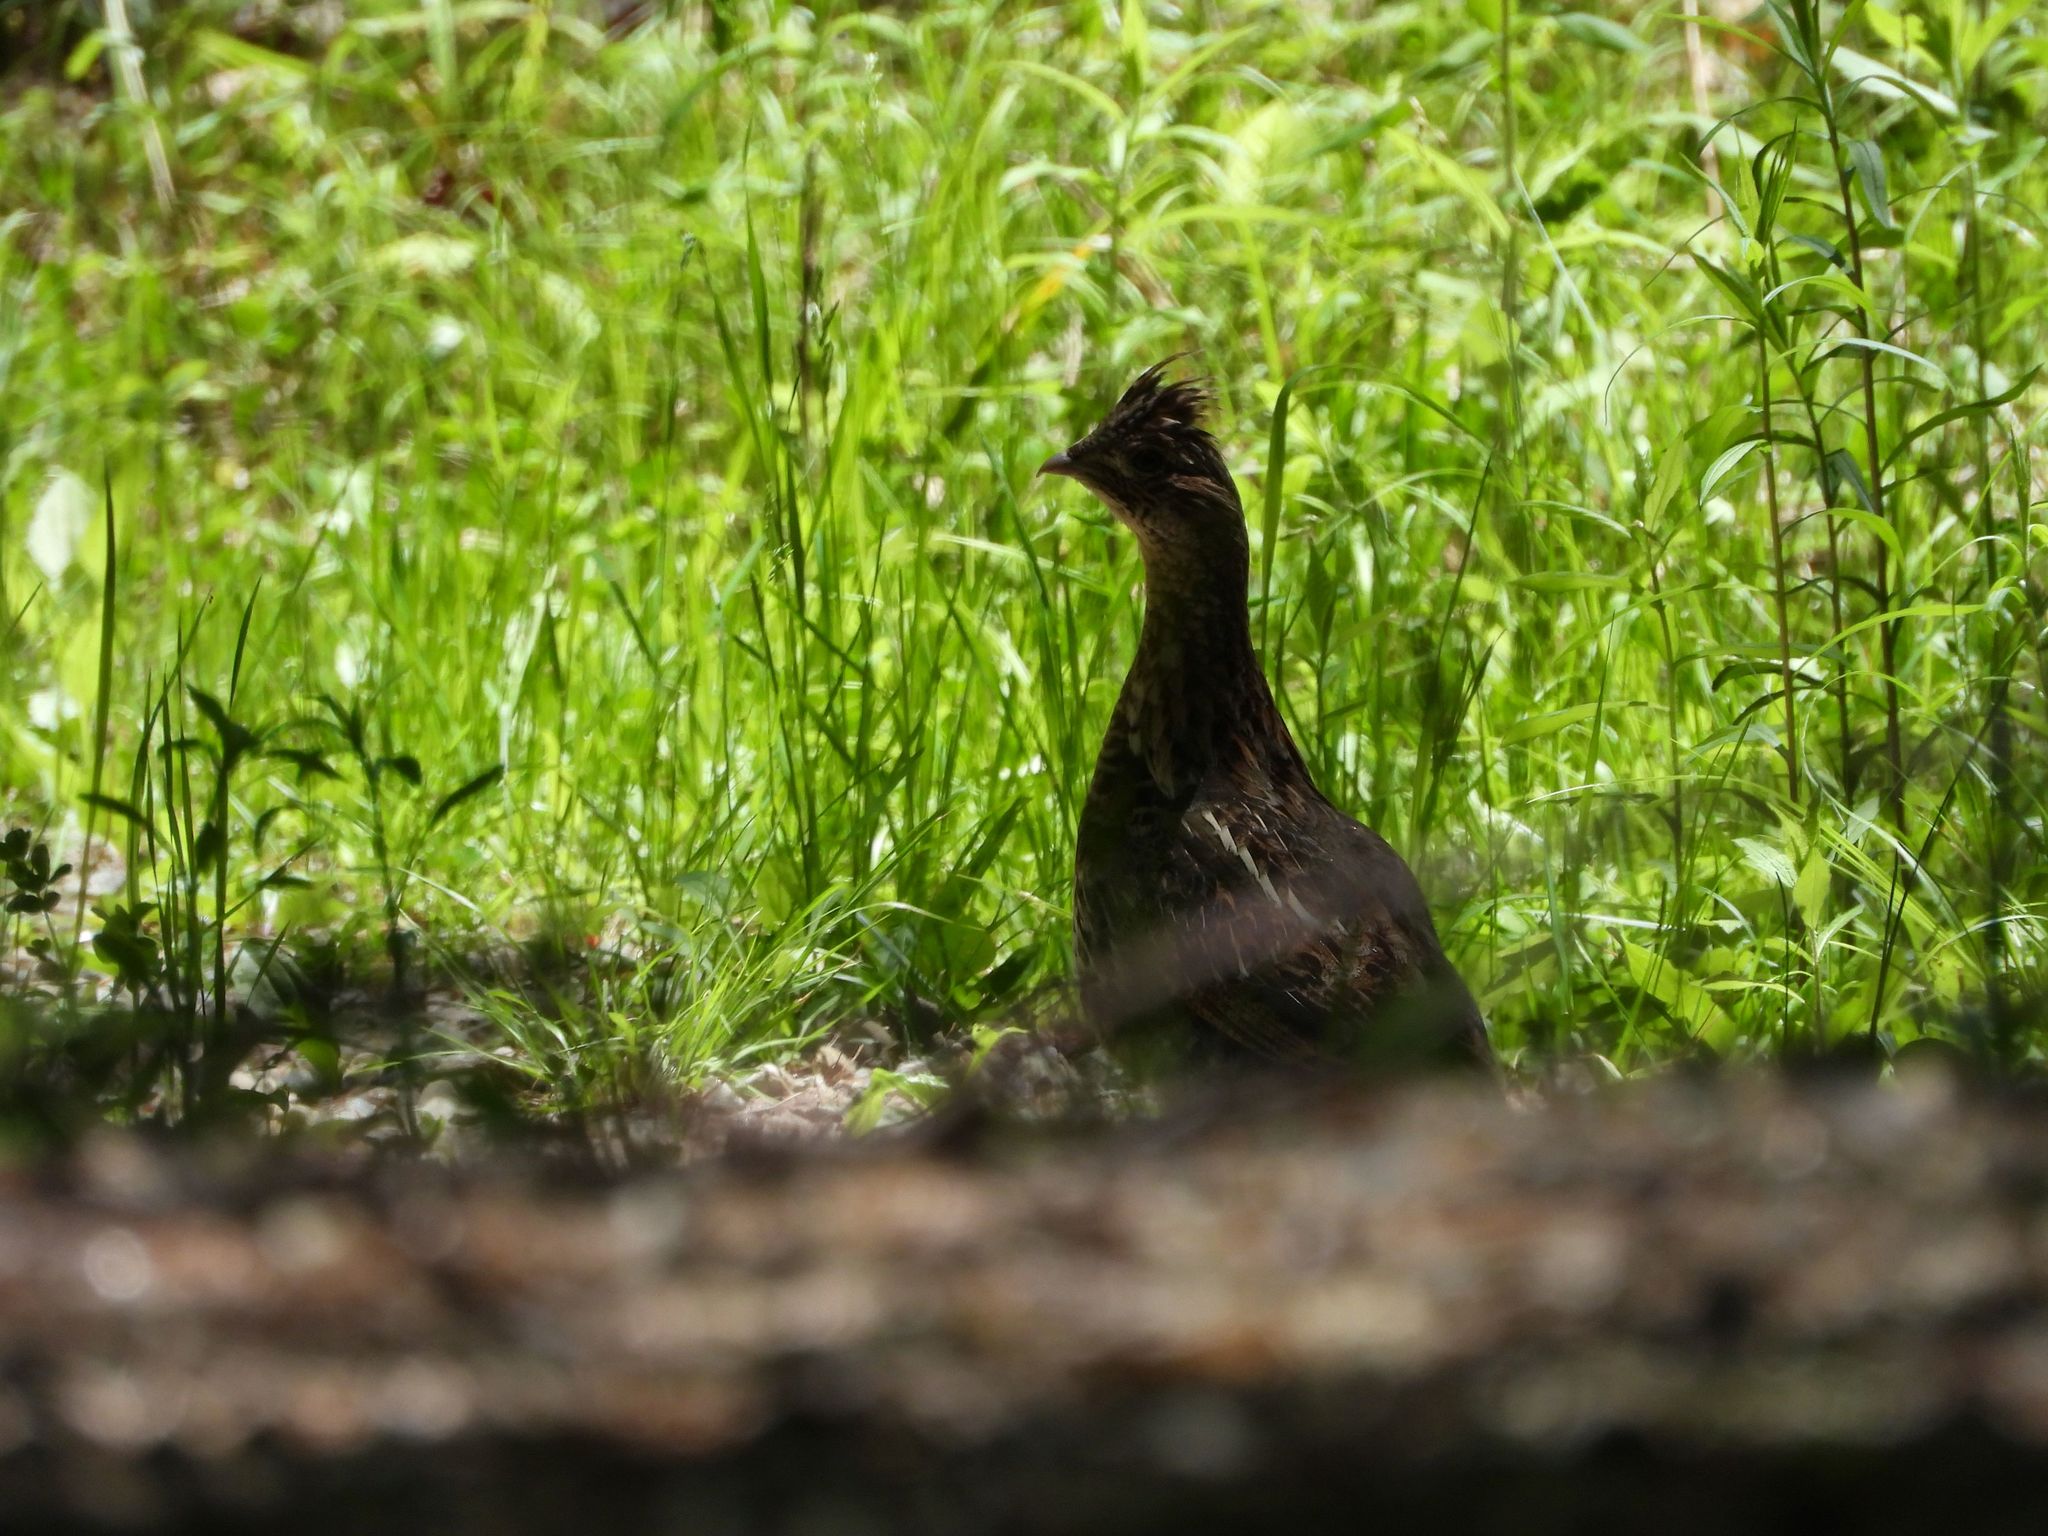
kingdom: Animalia
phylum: Chordata
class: Aves
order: Galliformes
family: Phasianidae
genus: Bonasa
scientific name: Bonasa umbellus
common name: Ruffed grouse
